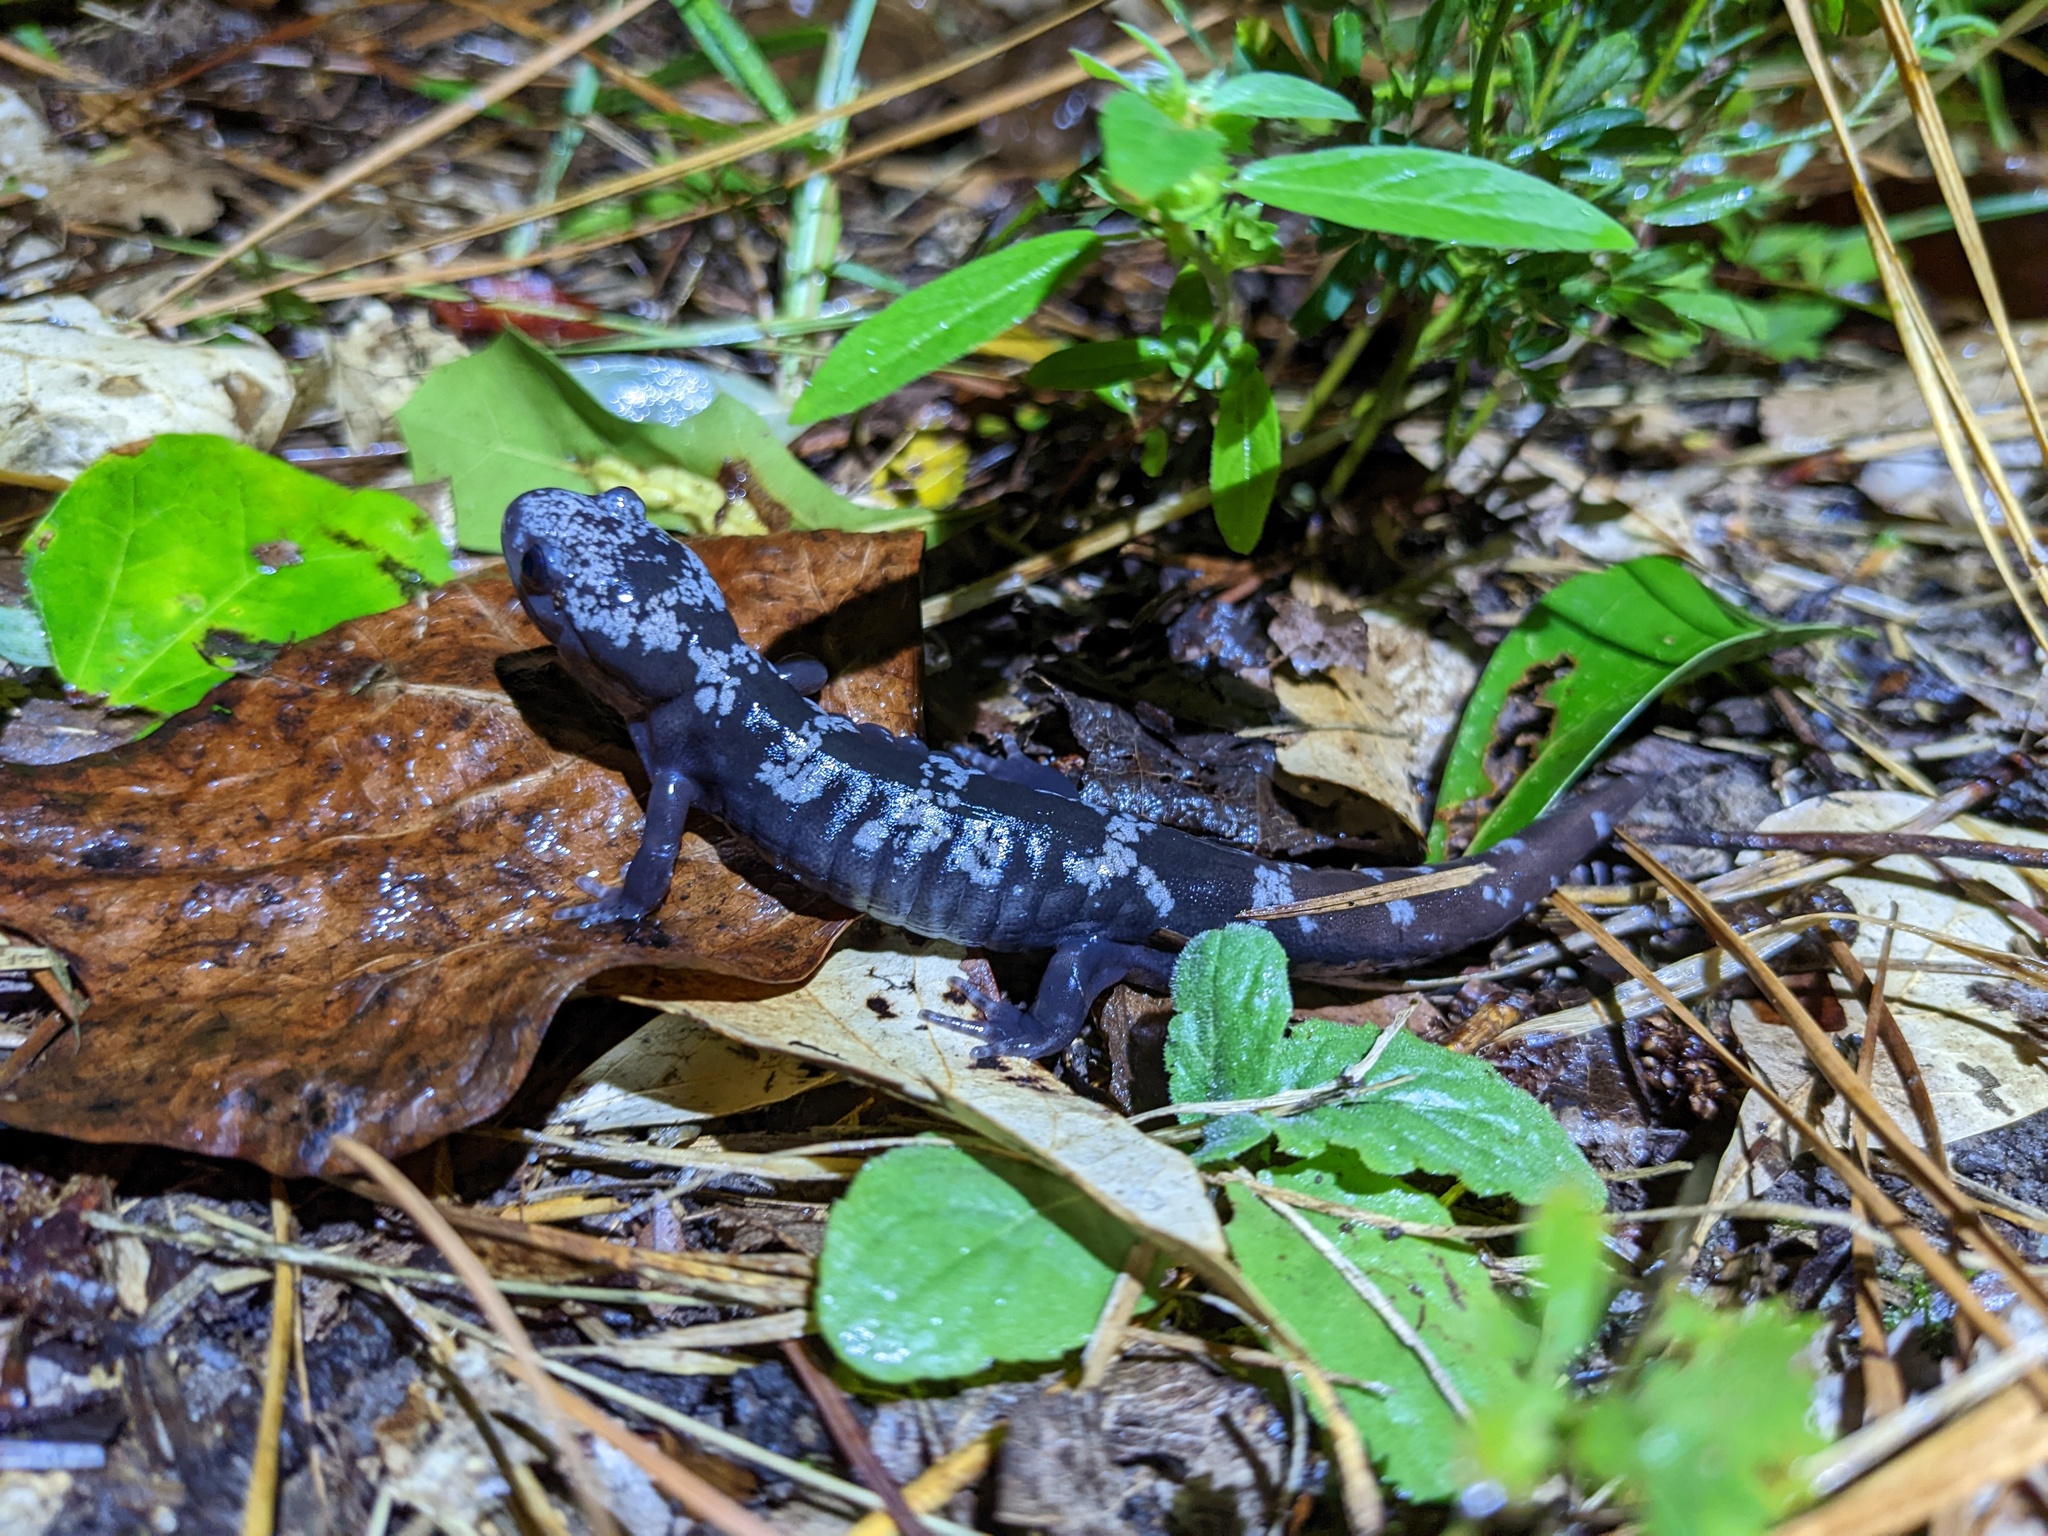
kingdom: Animalia
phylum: Chordata
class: Amphibia
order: Caudata
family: Ambystomatidae
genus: Ambystoma
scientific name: Ambystoma opacum
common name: Marbled salamander
